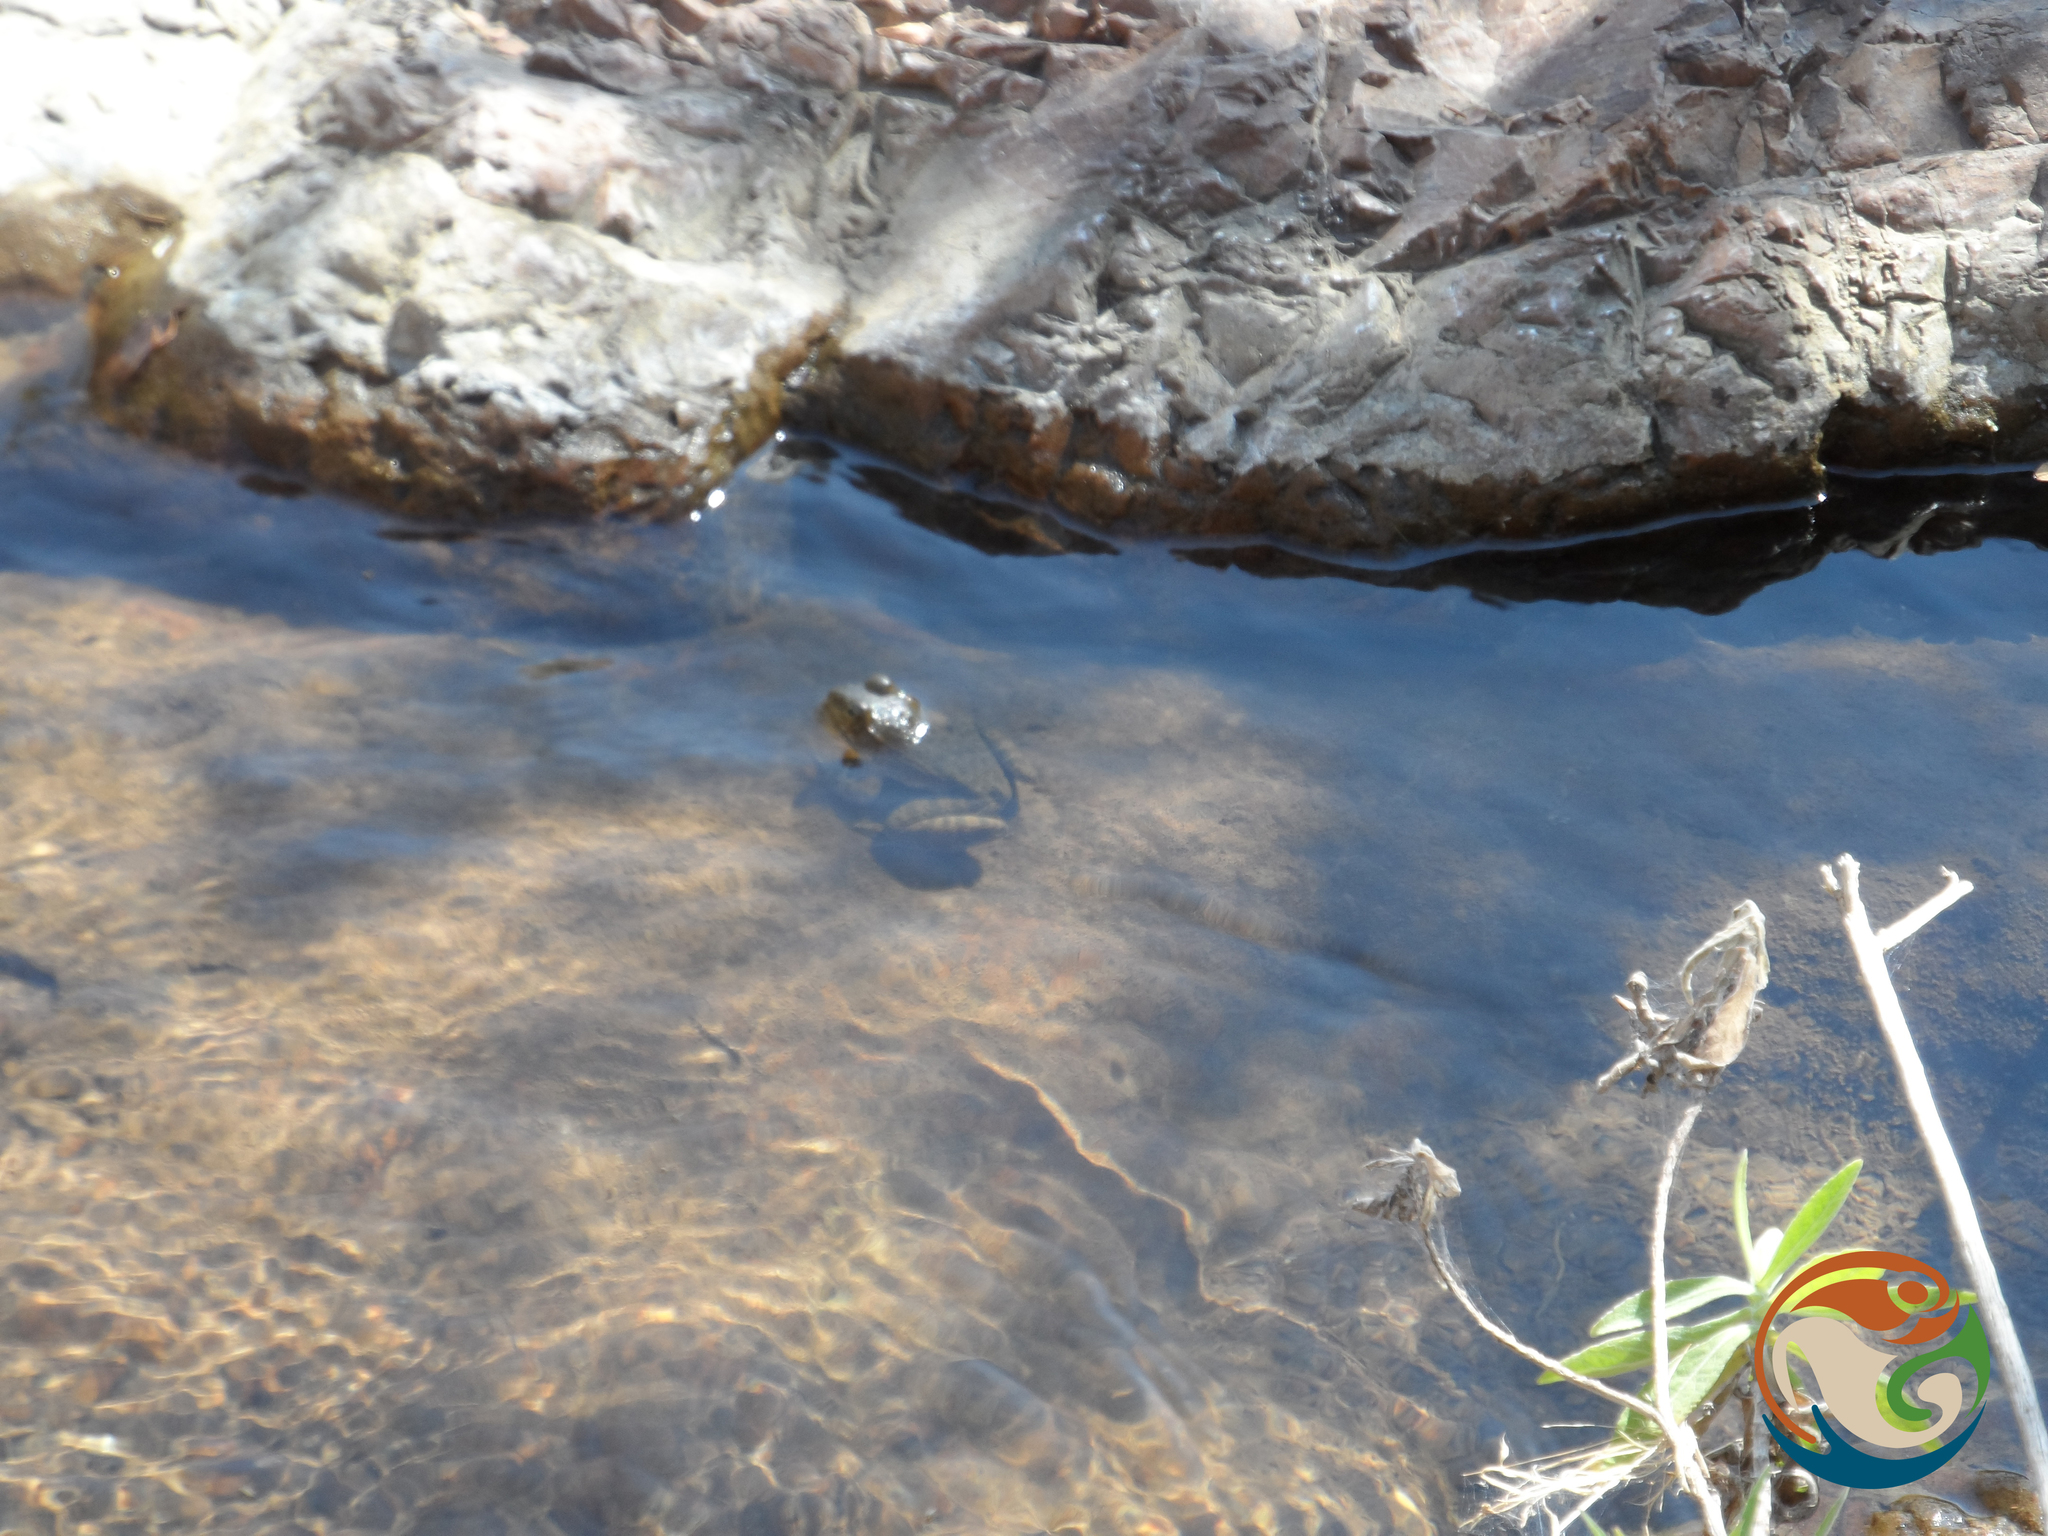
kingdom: Animalia
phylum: Chordata
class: Amphibia
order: Anura
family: Ranidae
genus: Lithobates
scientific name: Lithobates zweifeli
